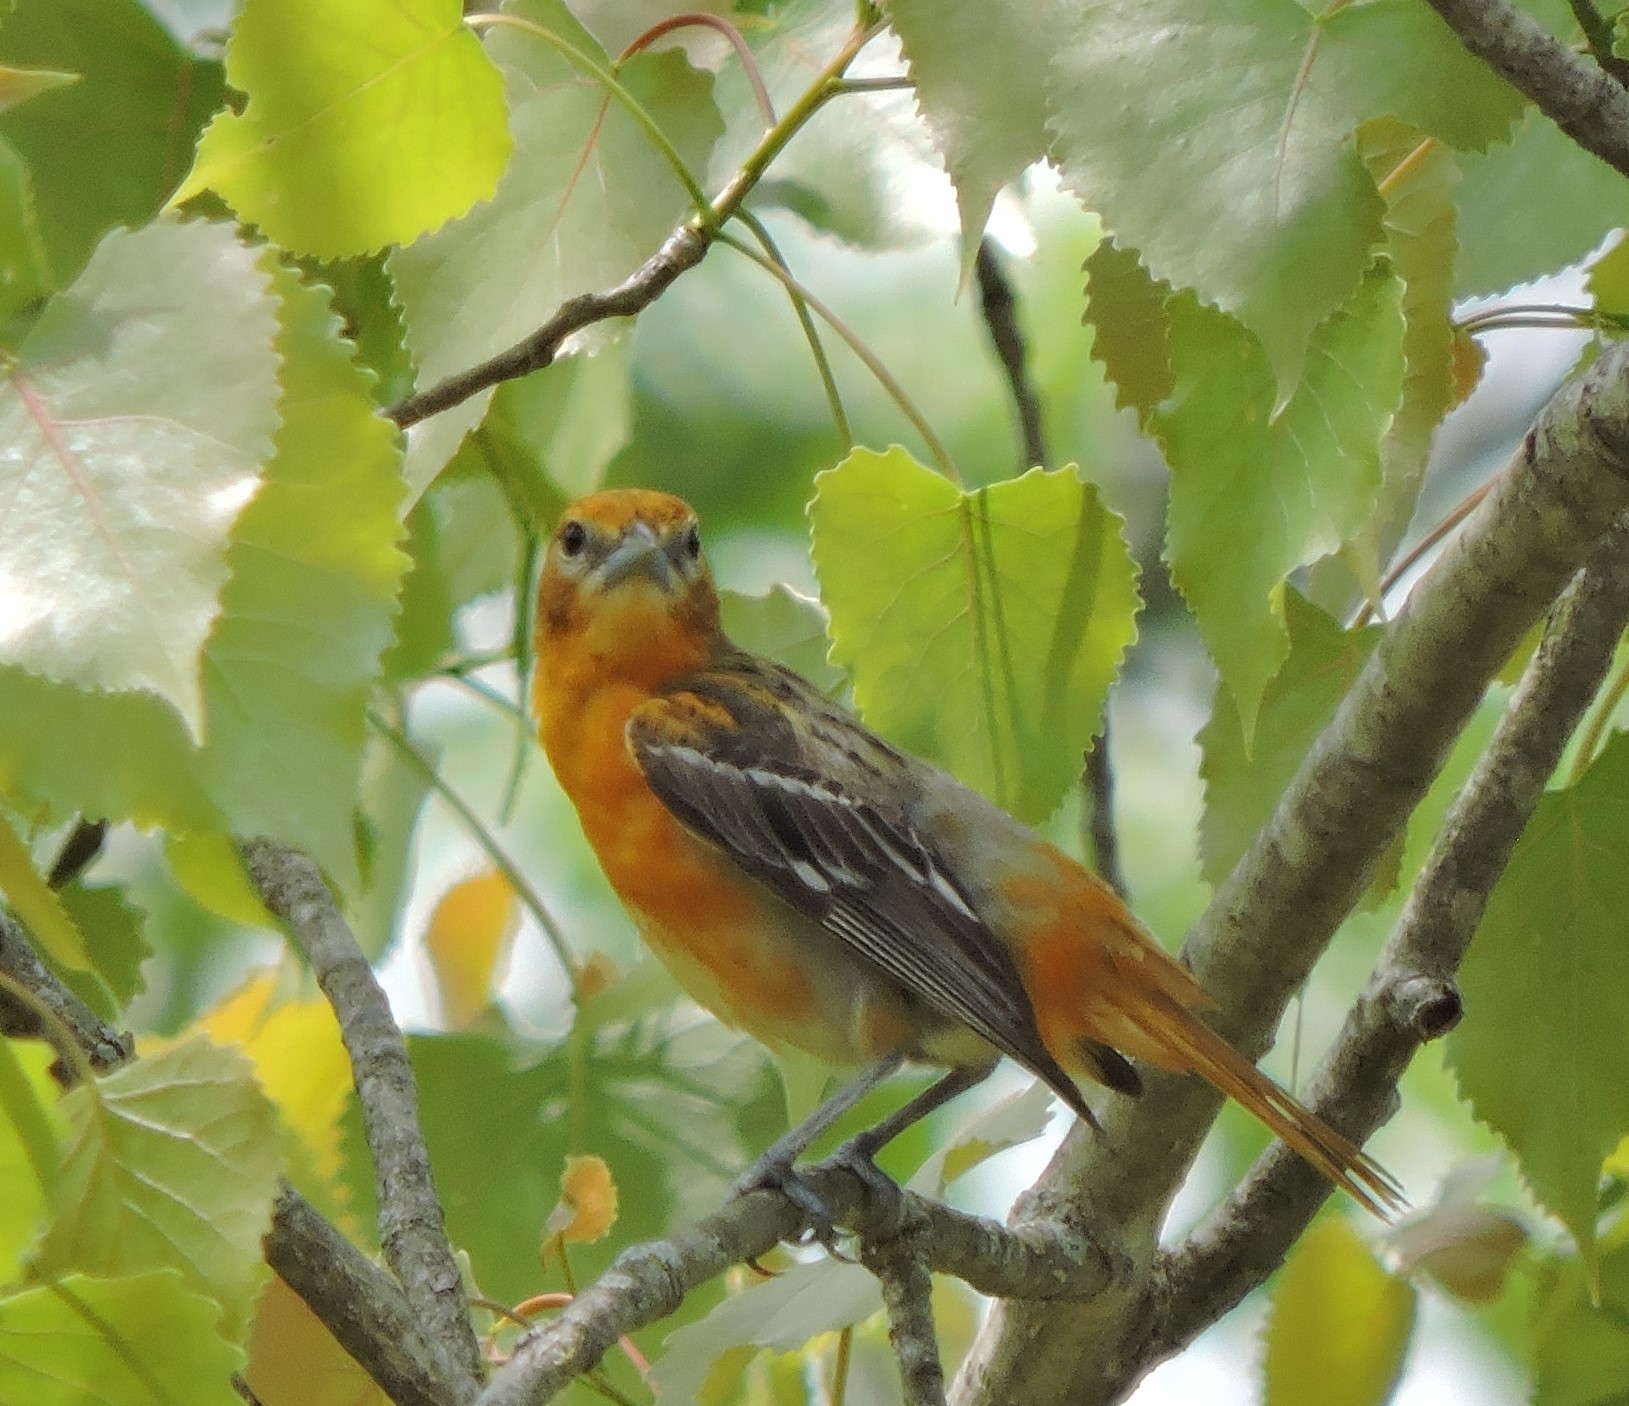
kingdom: Animalia
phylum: Chordata
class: Aves
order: Passeriformes
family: Icteridae
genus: Icterus
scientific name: Icterus galbula
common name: Baltimore oriole
